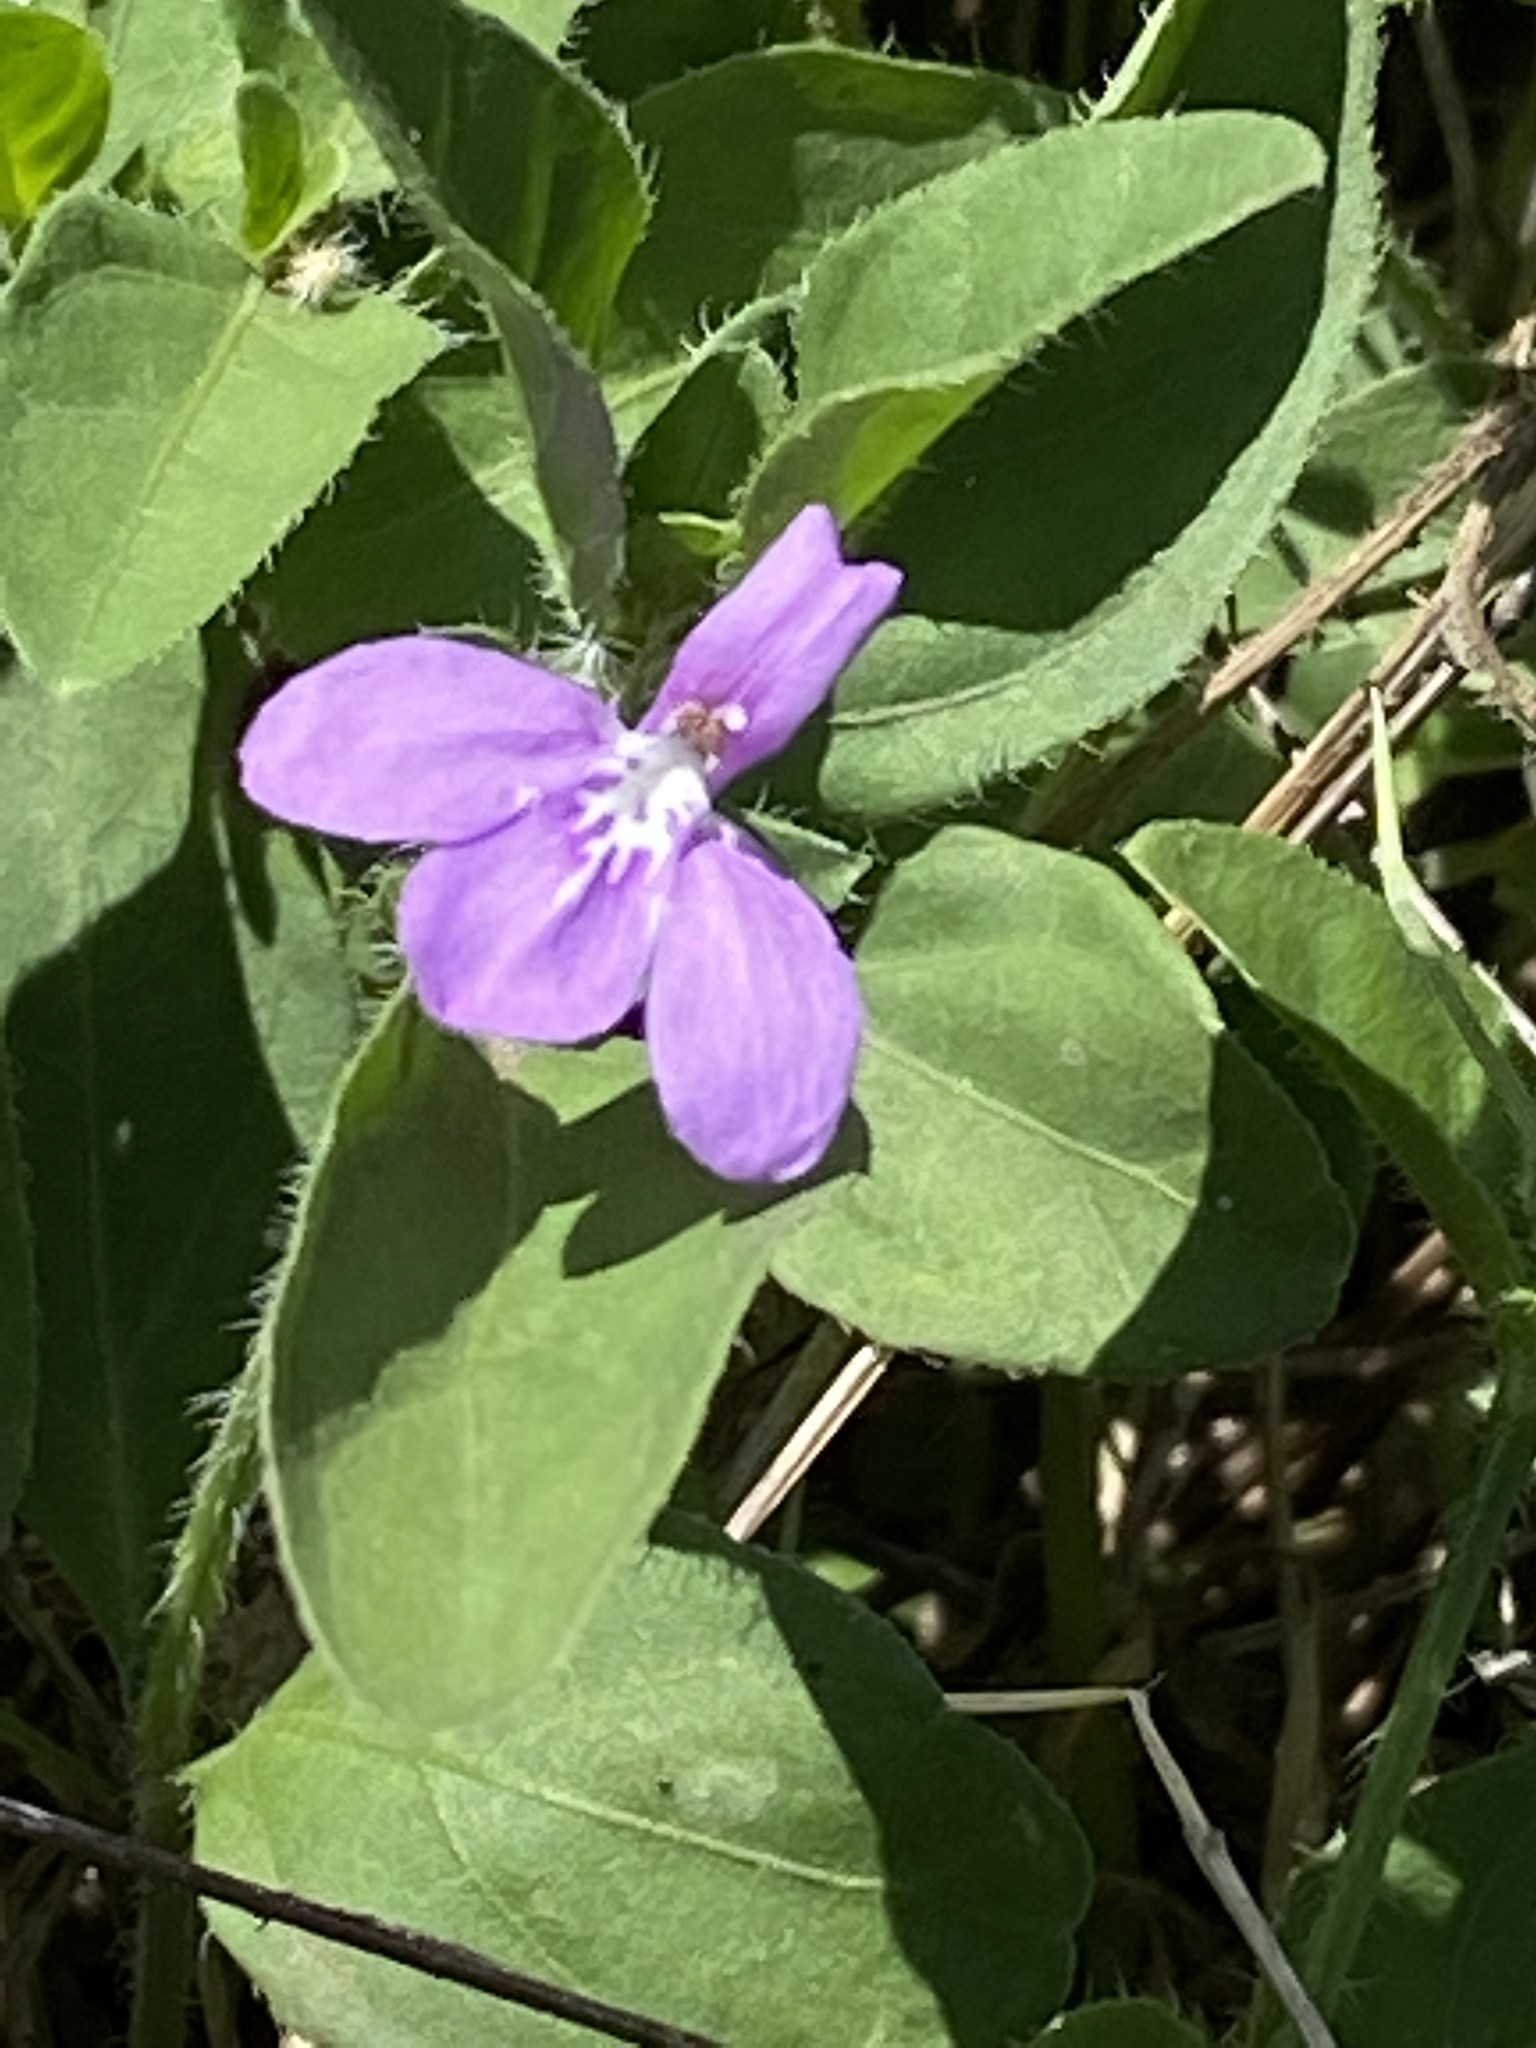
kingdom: Plantae
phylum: Tracheophyta
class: Magnoliopsida
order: Lamiales
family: Acanthaceae
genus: Justicia
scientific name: Justicia pilosella
